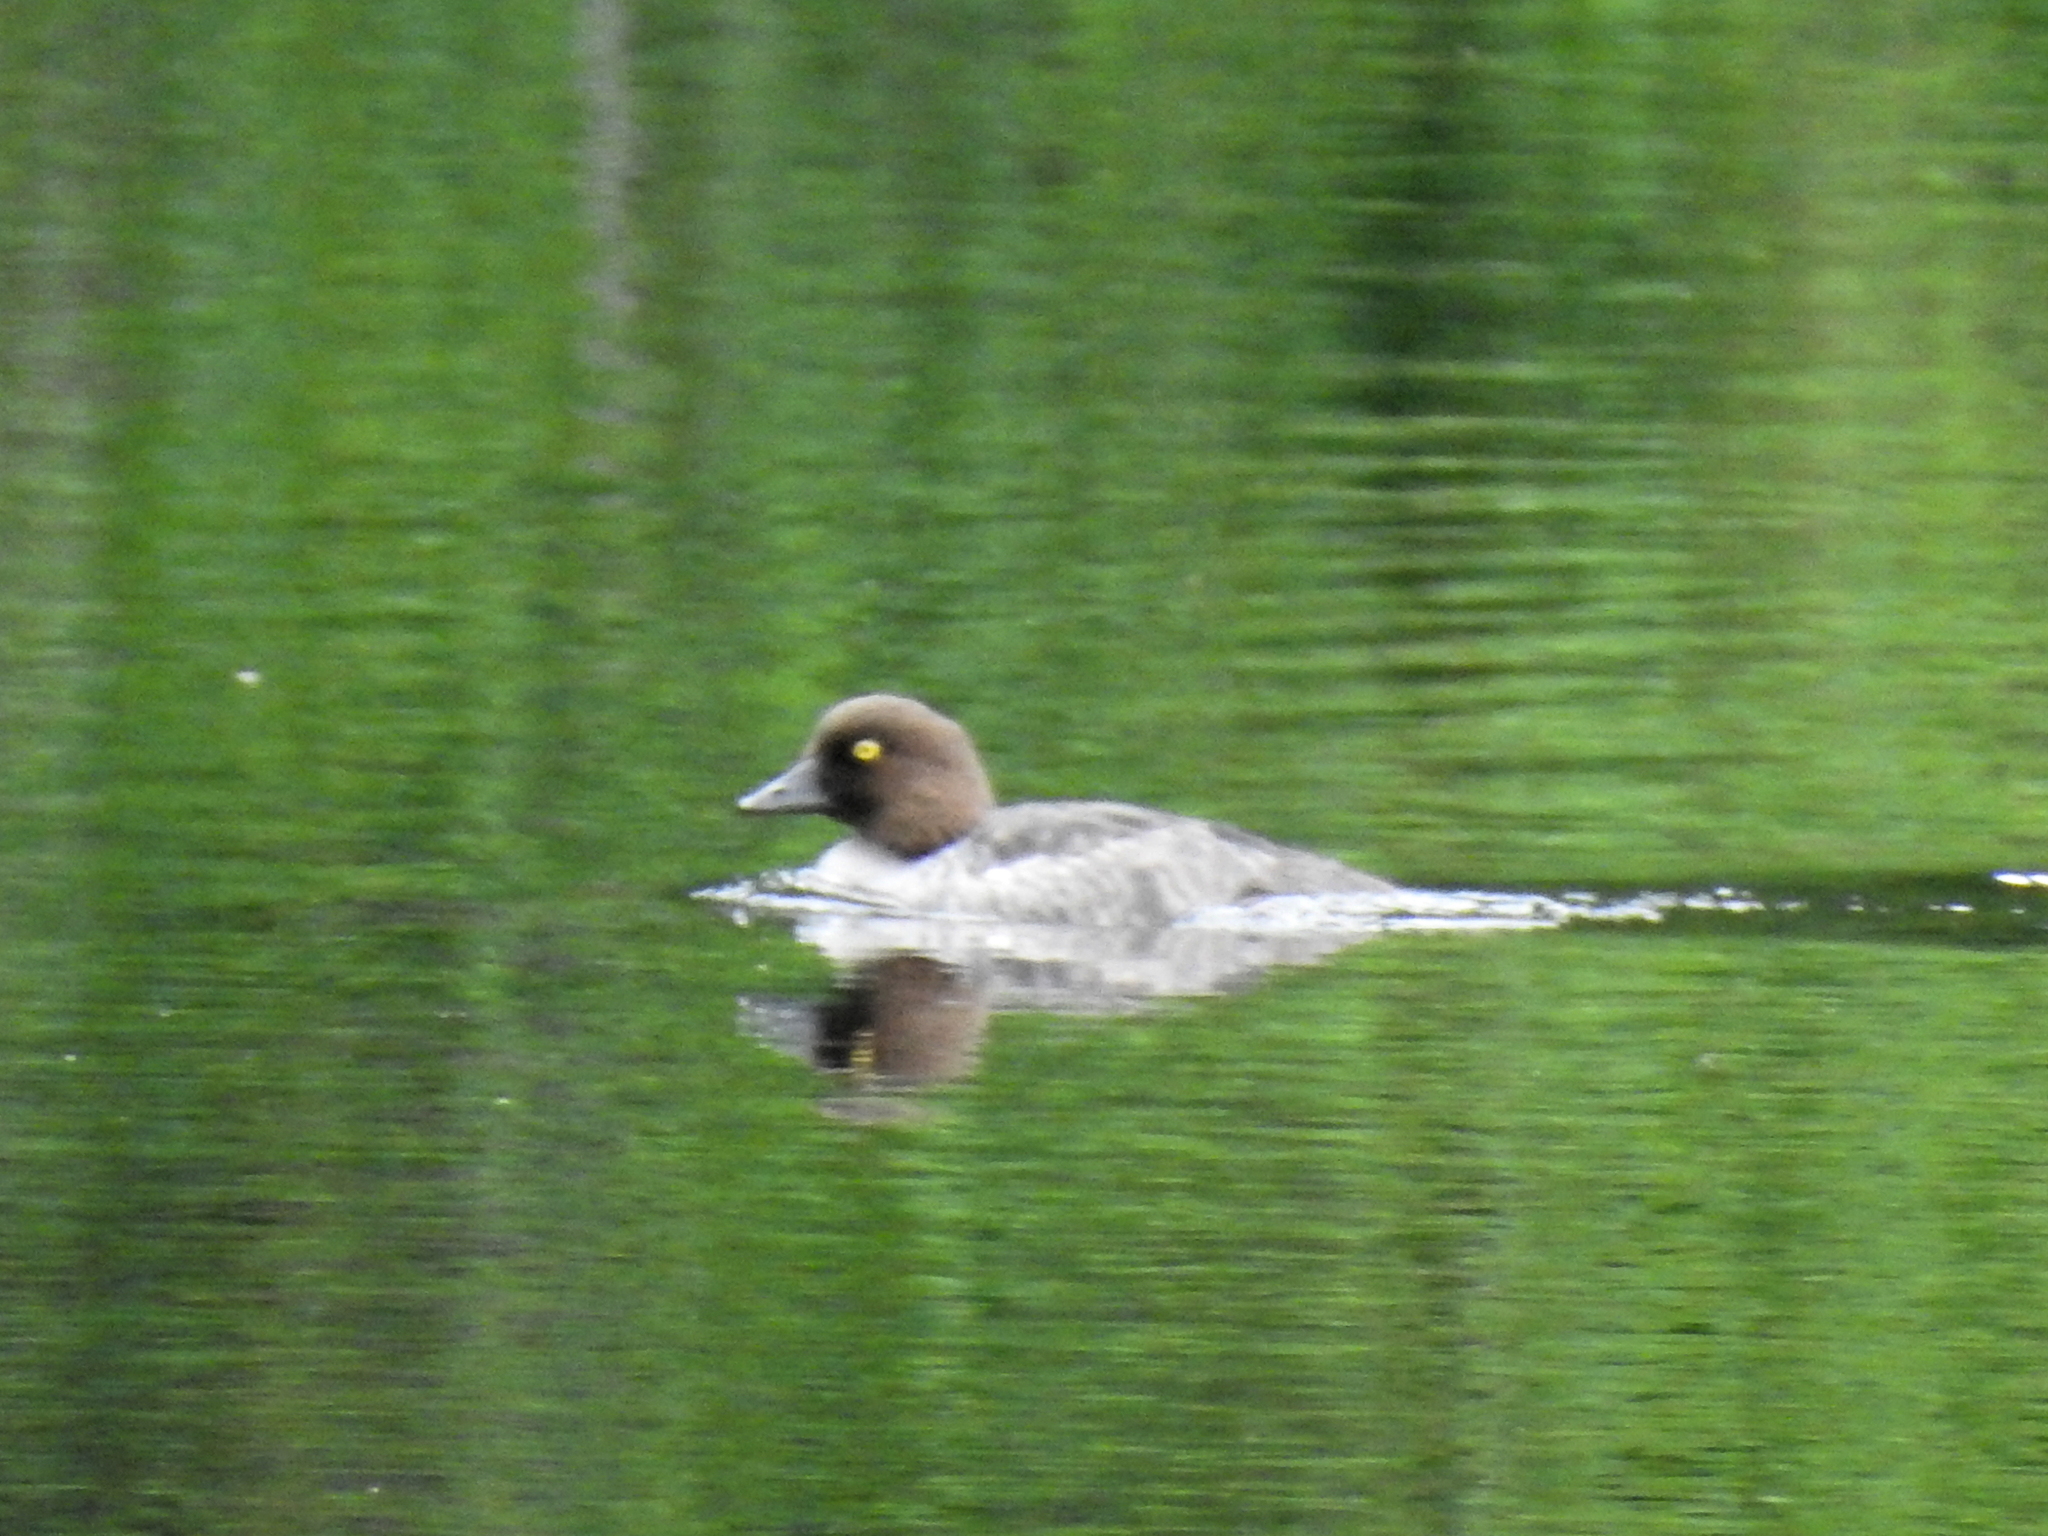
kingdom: Animalia
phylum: Chordata
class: Aves
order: Anseriformes
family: Anatidae
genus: Bucephala
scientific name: Bucephala clangula
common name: Common goldeneye
